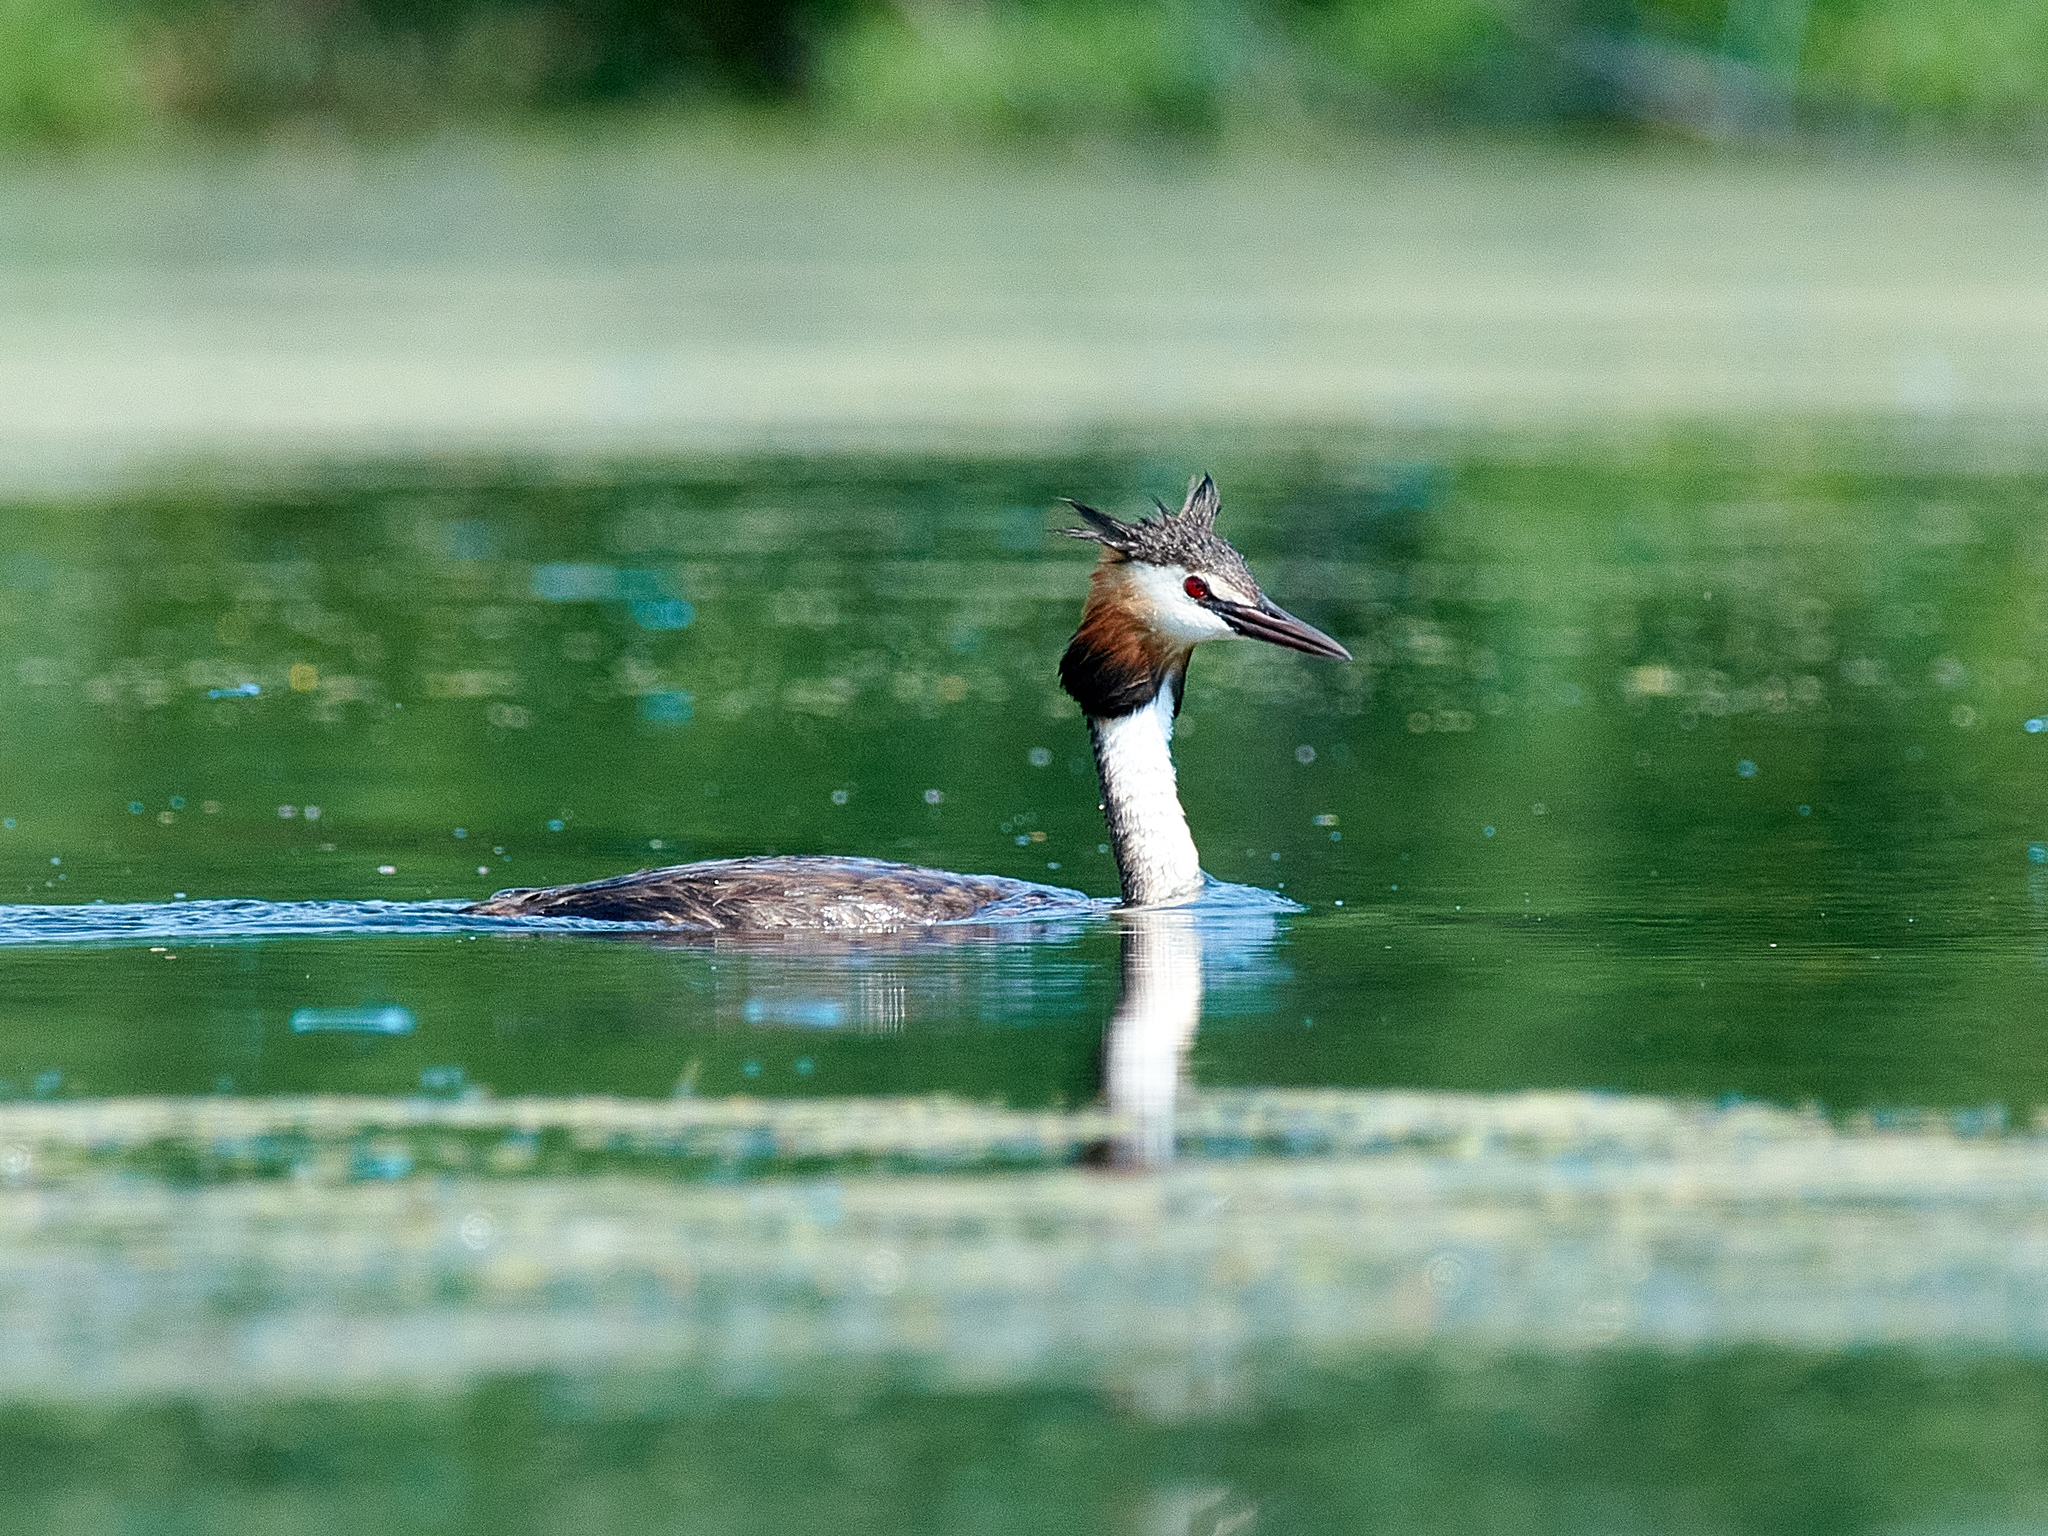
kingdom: Animalia
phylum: Chordata
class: Aves
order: Podicipediformes
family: Podicipedidae
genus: Podiceps
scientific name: Podiceps cristatus
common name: Great crested grebe
